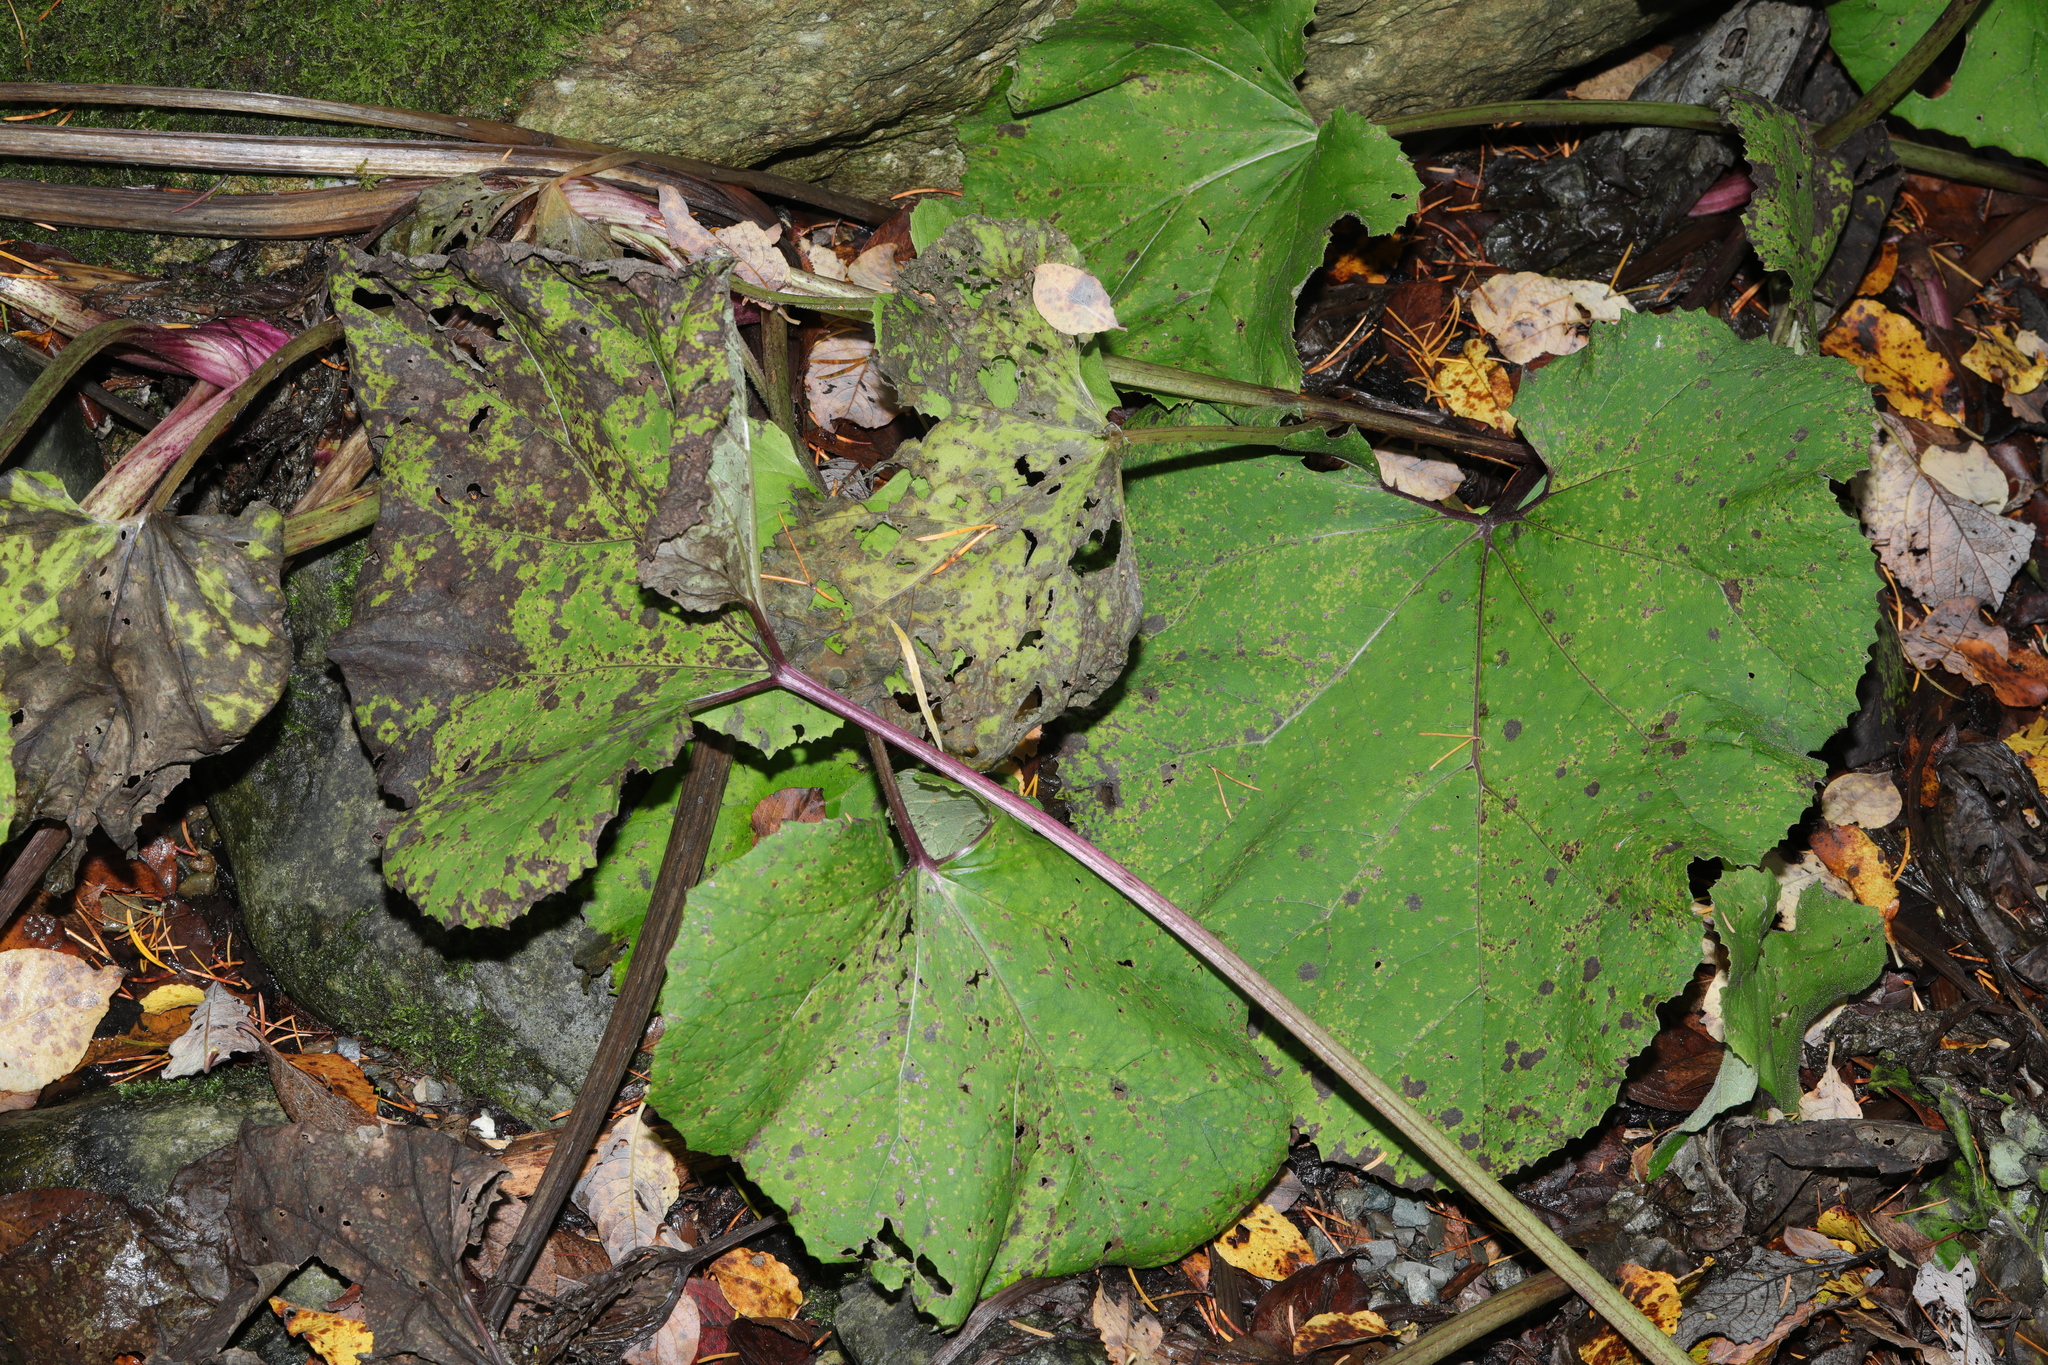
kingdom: Plantae
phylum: Tracheophyta
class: Magnoliopsida
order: Asterales
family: Asteraceae
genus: Tussilago
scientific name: Tussilago farfara
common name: Coltsfoot
